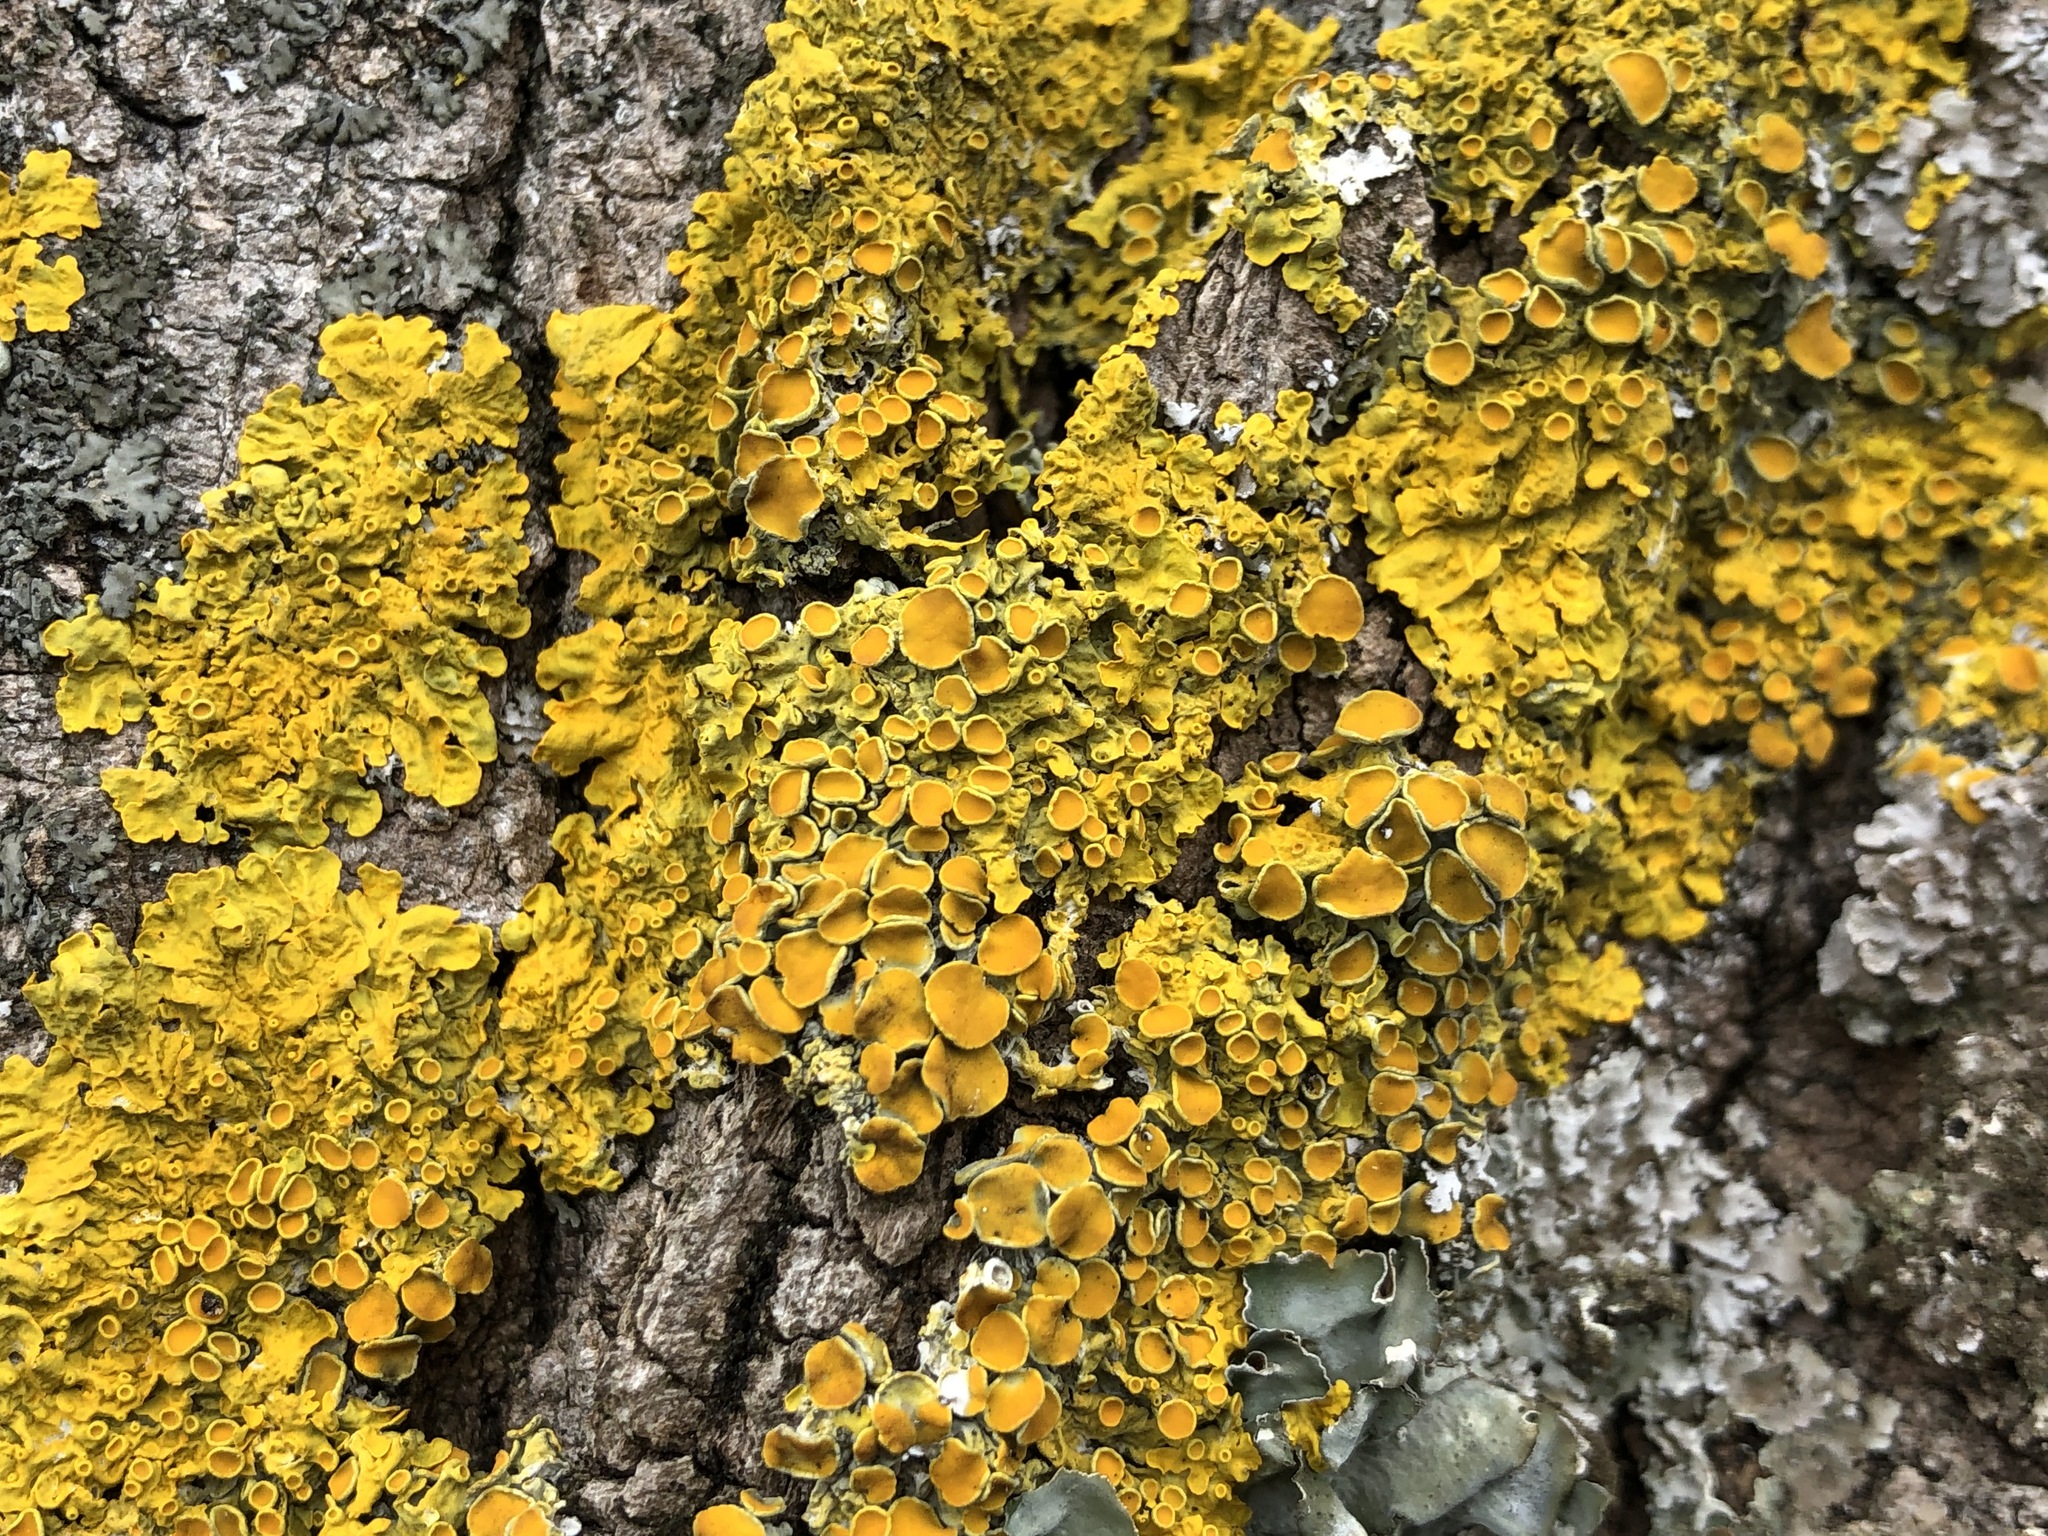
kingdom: Fungi
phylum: Ascomycota
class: Lecanoromycetes
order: Teloschistales
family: Teloschistaceae
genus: Xanthoria
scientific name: Xanthoria parietina
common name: Common orange lichen
